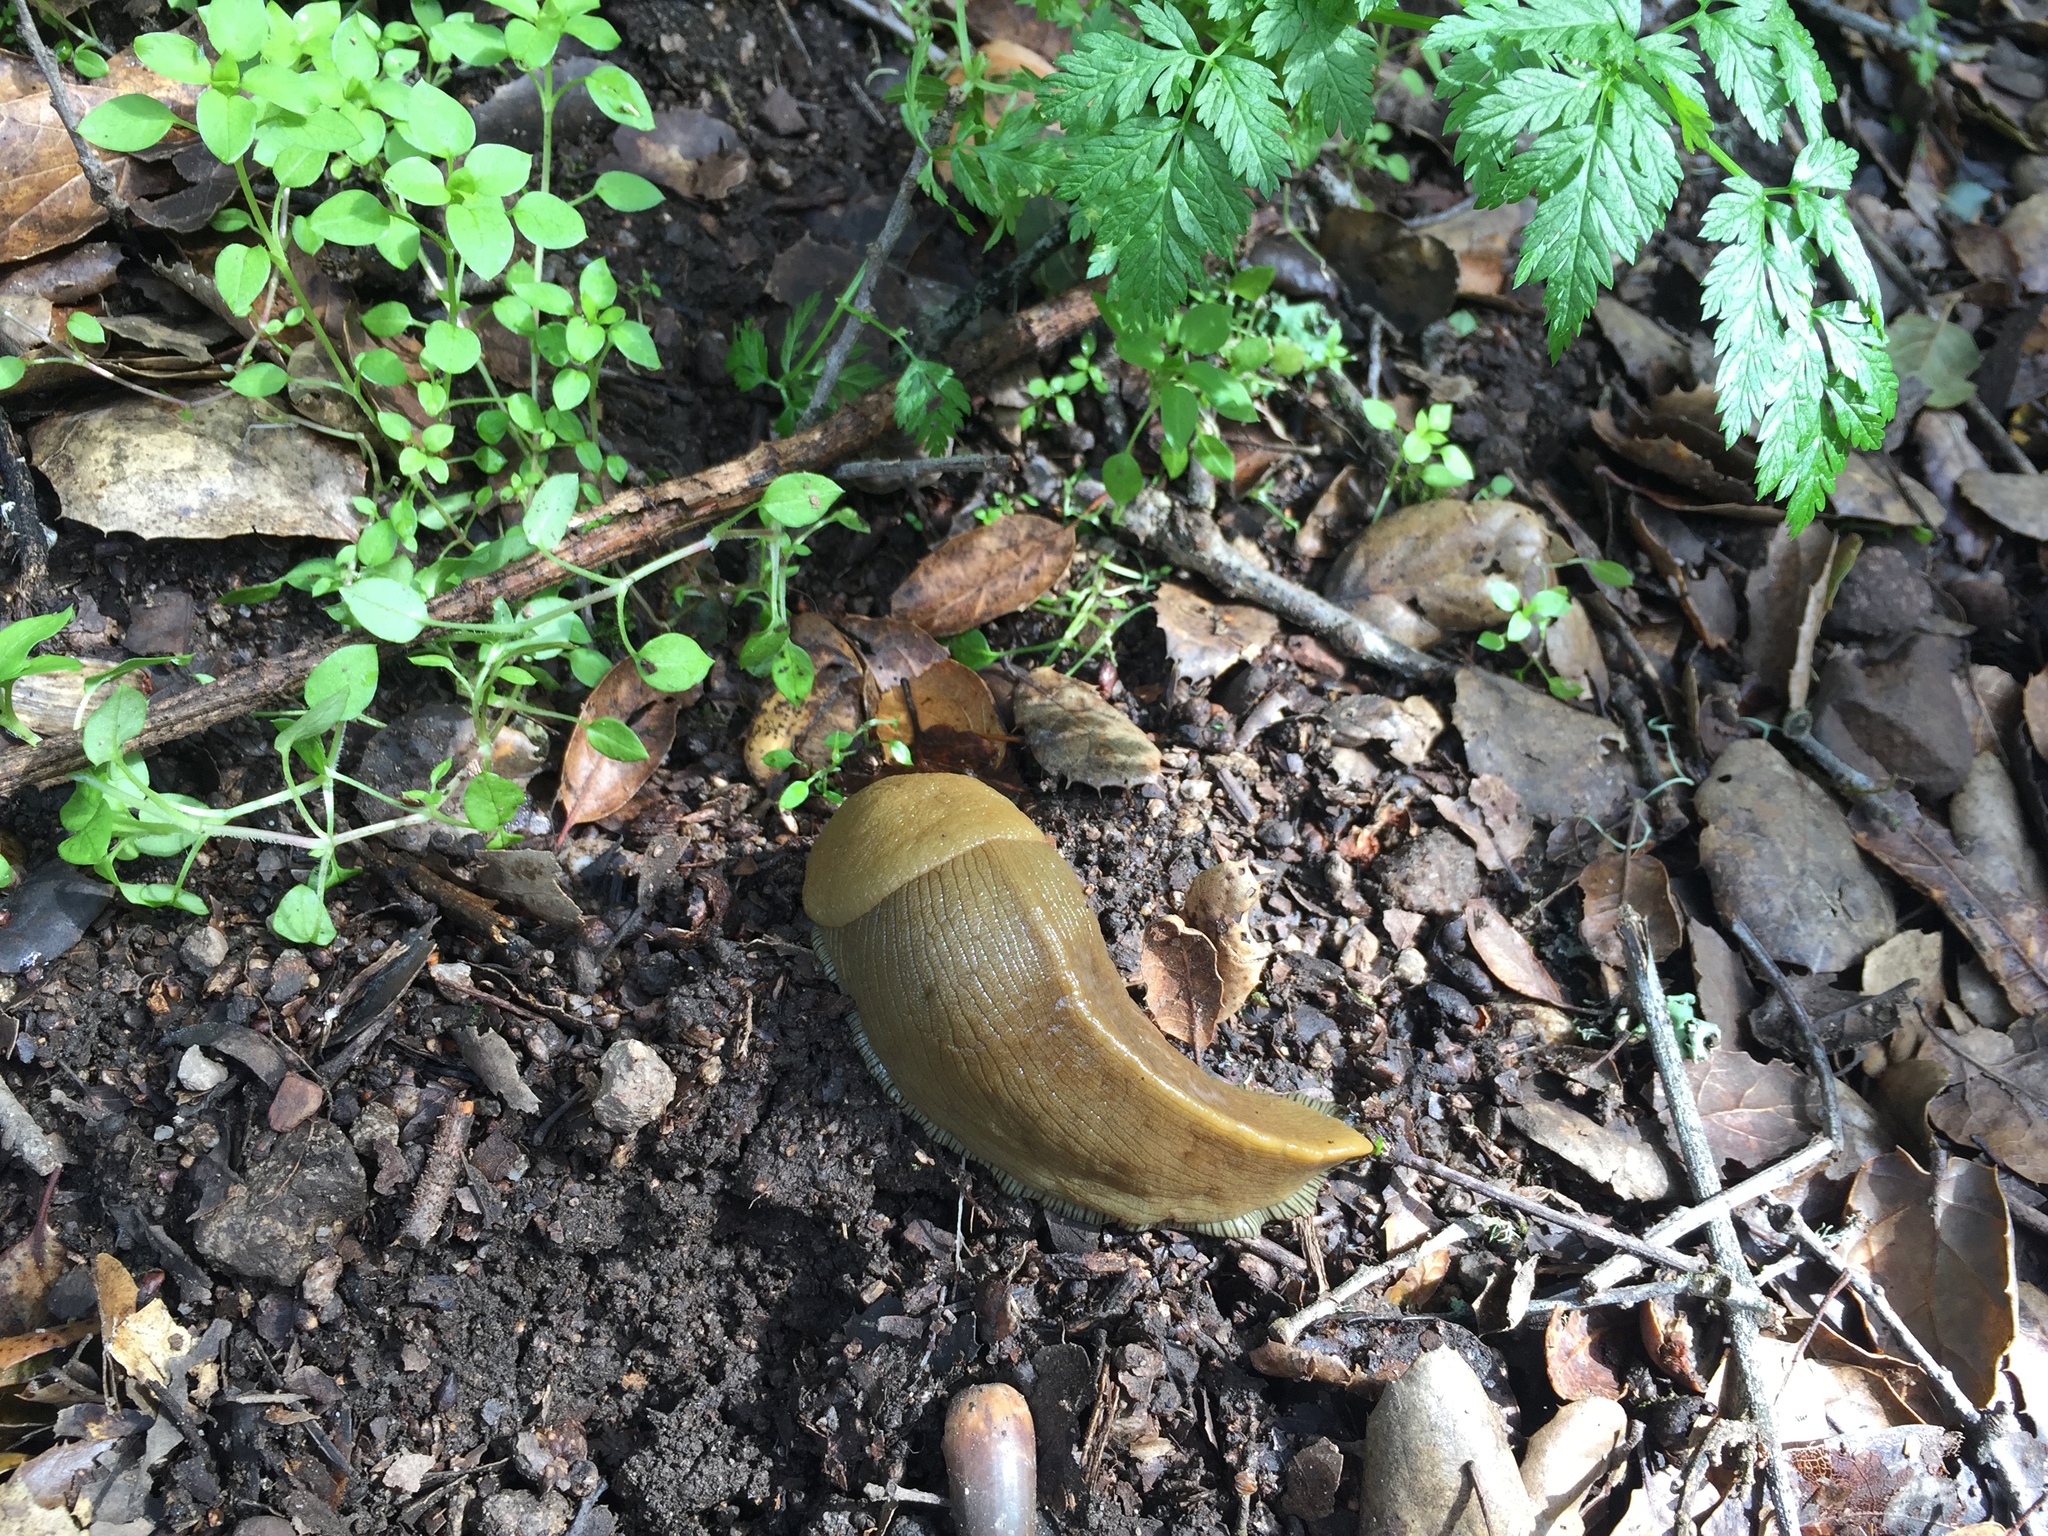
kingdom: Animalia
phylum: Mollusca
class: Gastropoda
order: Stylommatophora
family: Ariolimacidae
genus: Ariolimax
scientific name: Ariolimax buttoni
